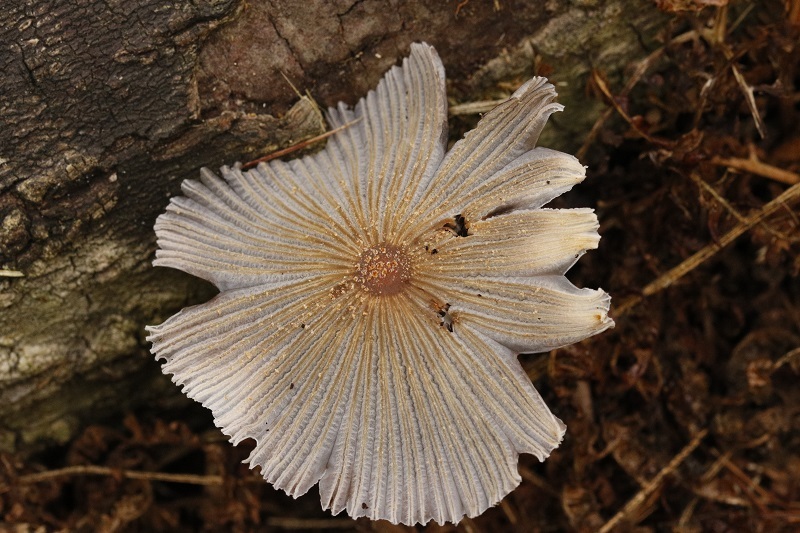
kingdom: Fungi
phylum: Basidiomycota
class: Agaricomycetes
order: Agaricales
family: Psathyrellaceae
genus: Parasola
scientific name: Parasola plicatilis
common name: Pleated inkcap
